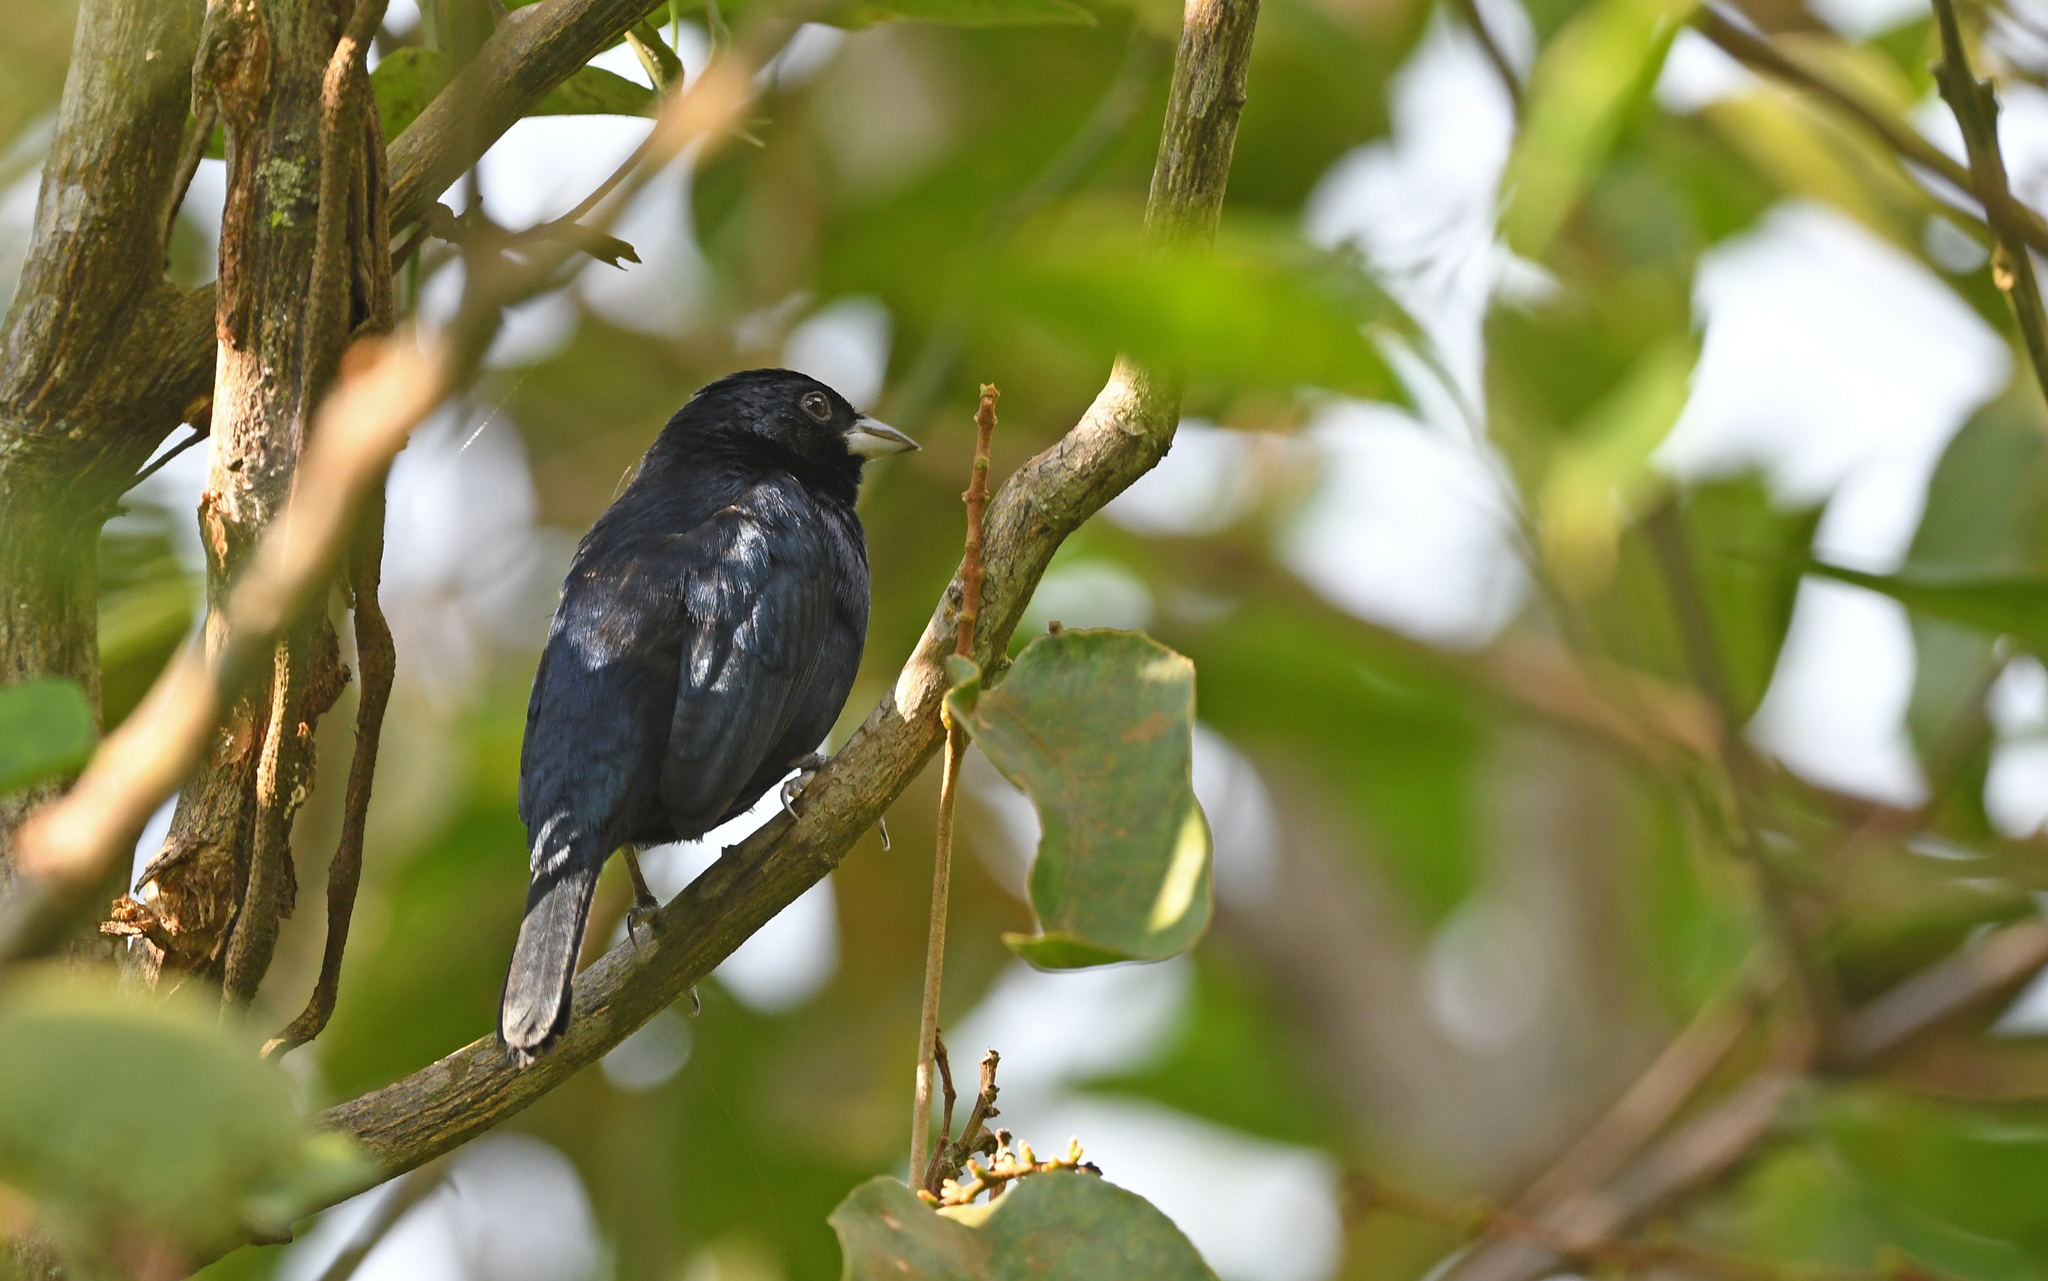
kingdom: Animalia
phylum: Chordata
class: Aves
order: Passeriformes
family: Thraupidae
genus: Volatinia
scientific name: Volatinia jacarina
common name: Blue-black grassquit
